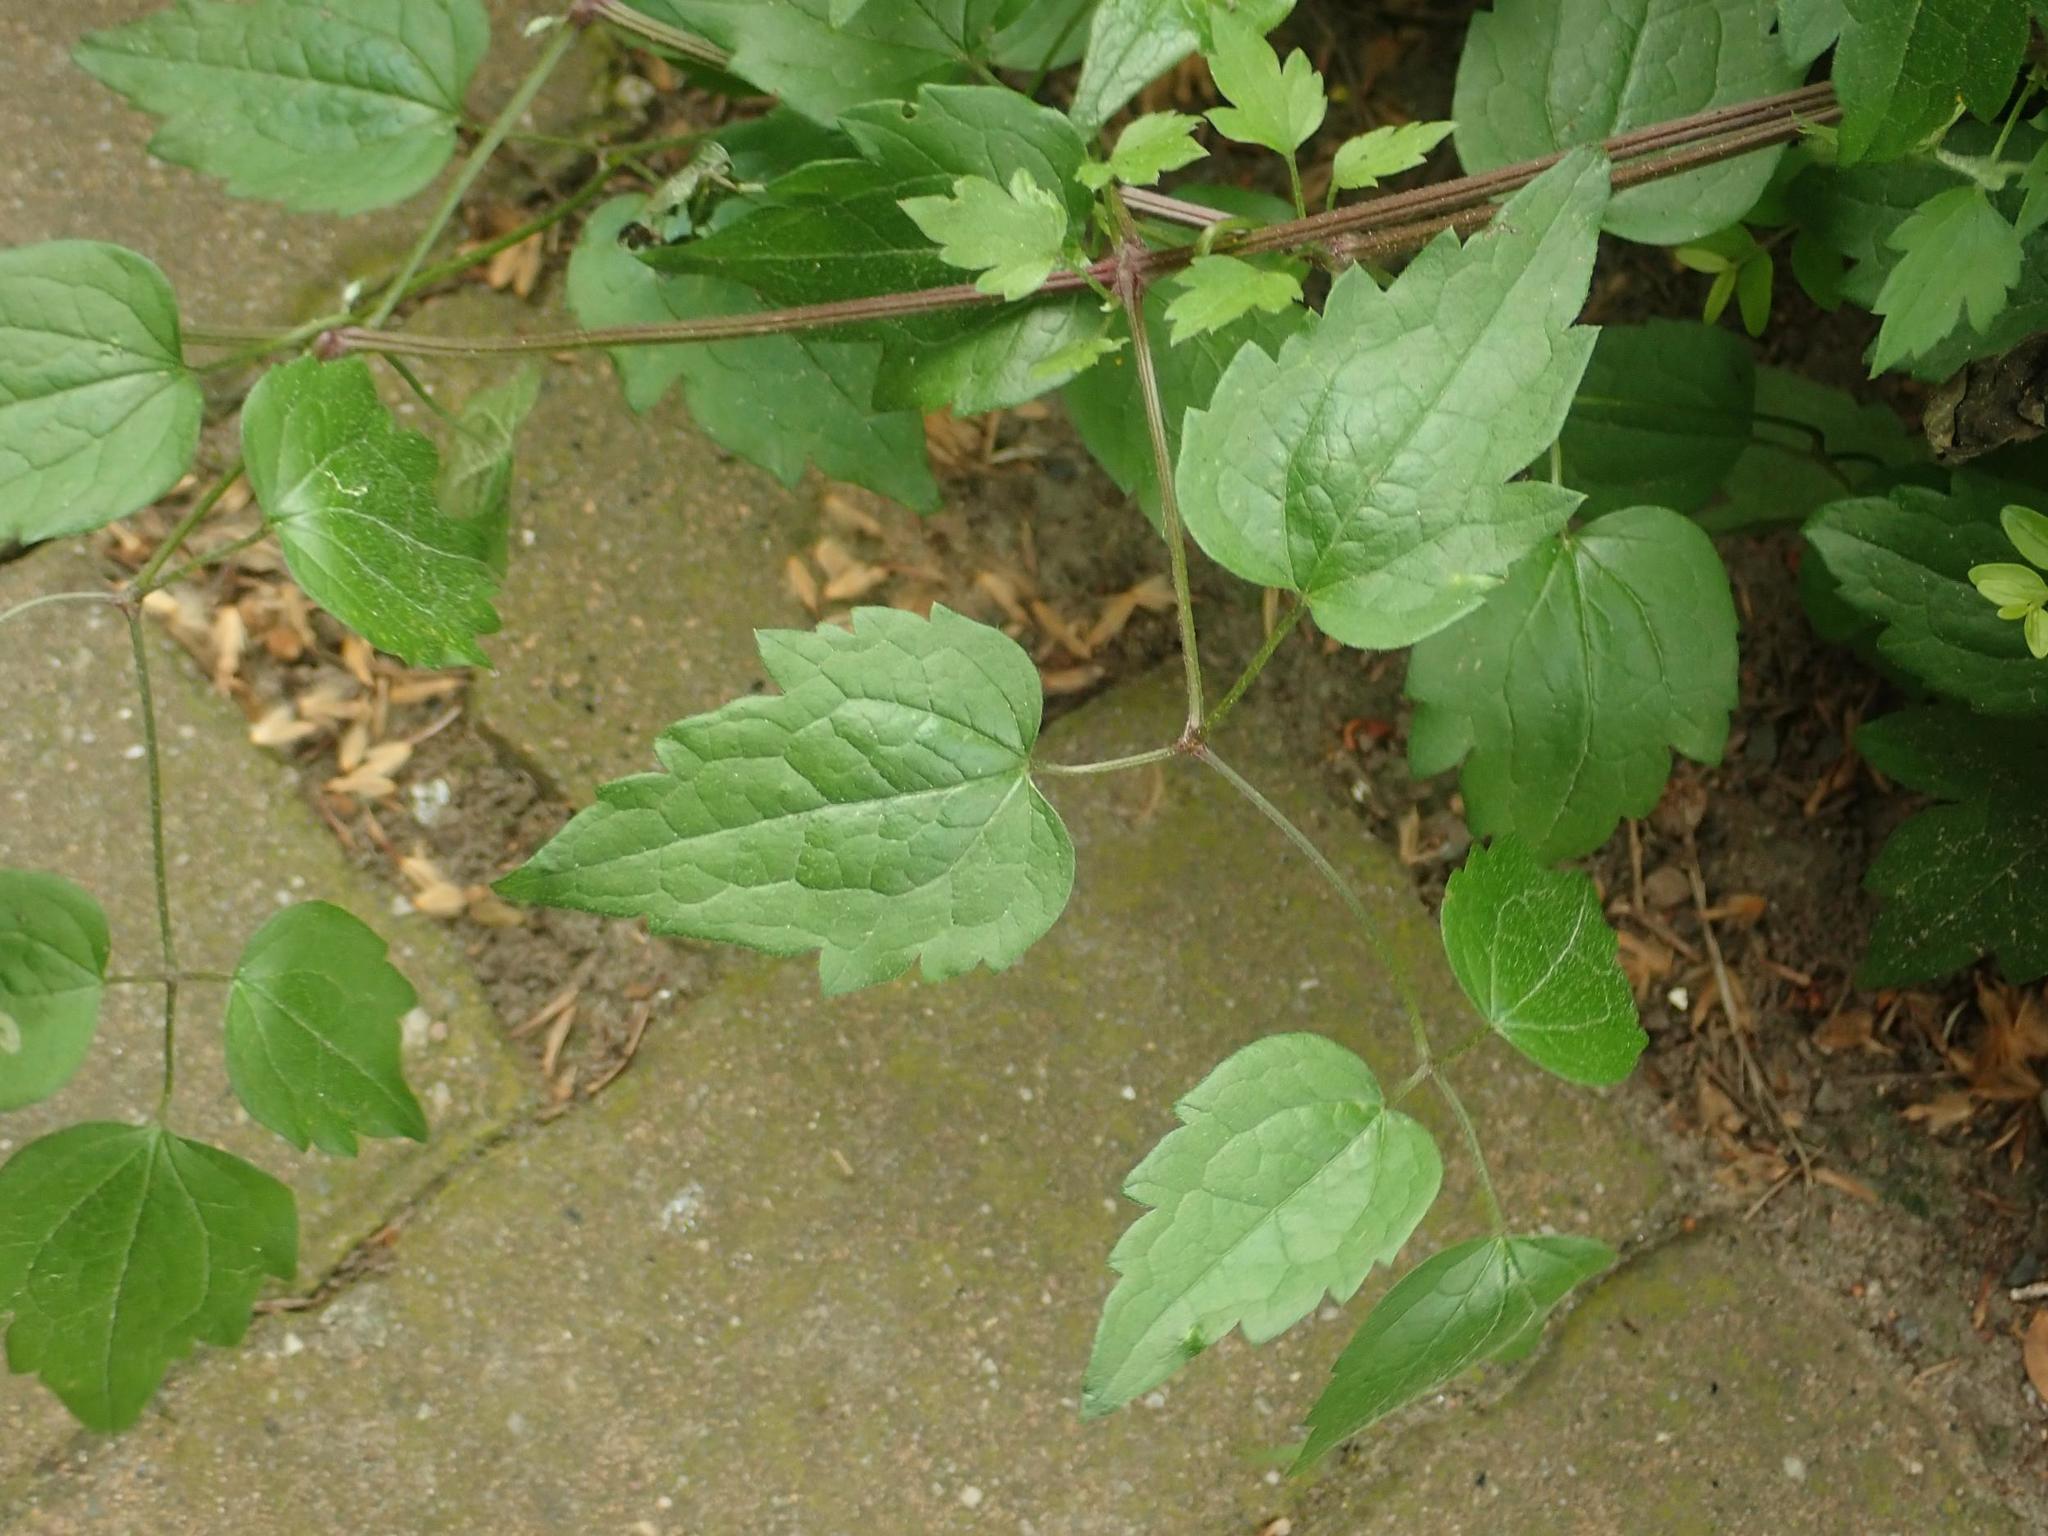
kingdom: Plantae
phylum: Tracheophyta
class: Magnoliopsida
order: Ranunculales
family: Ranunculaceae
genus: Clematis
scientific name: Clematis vitalba
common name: Evergreen clematis
